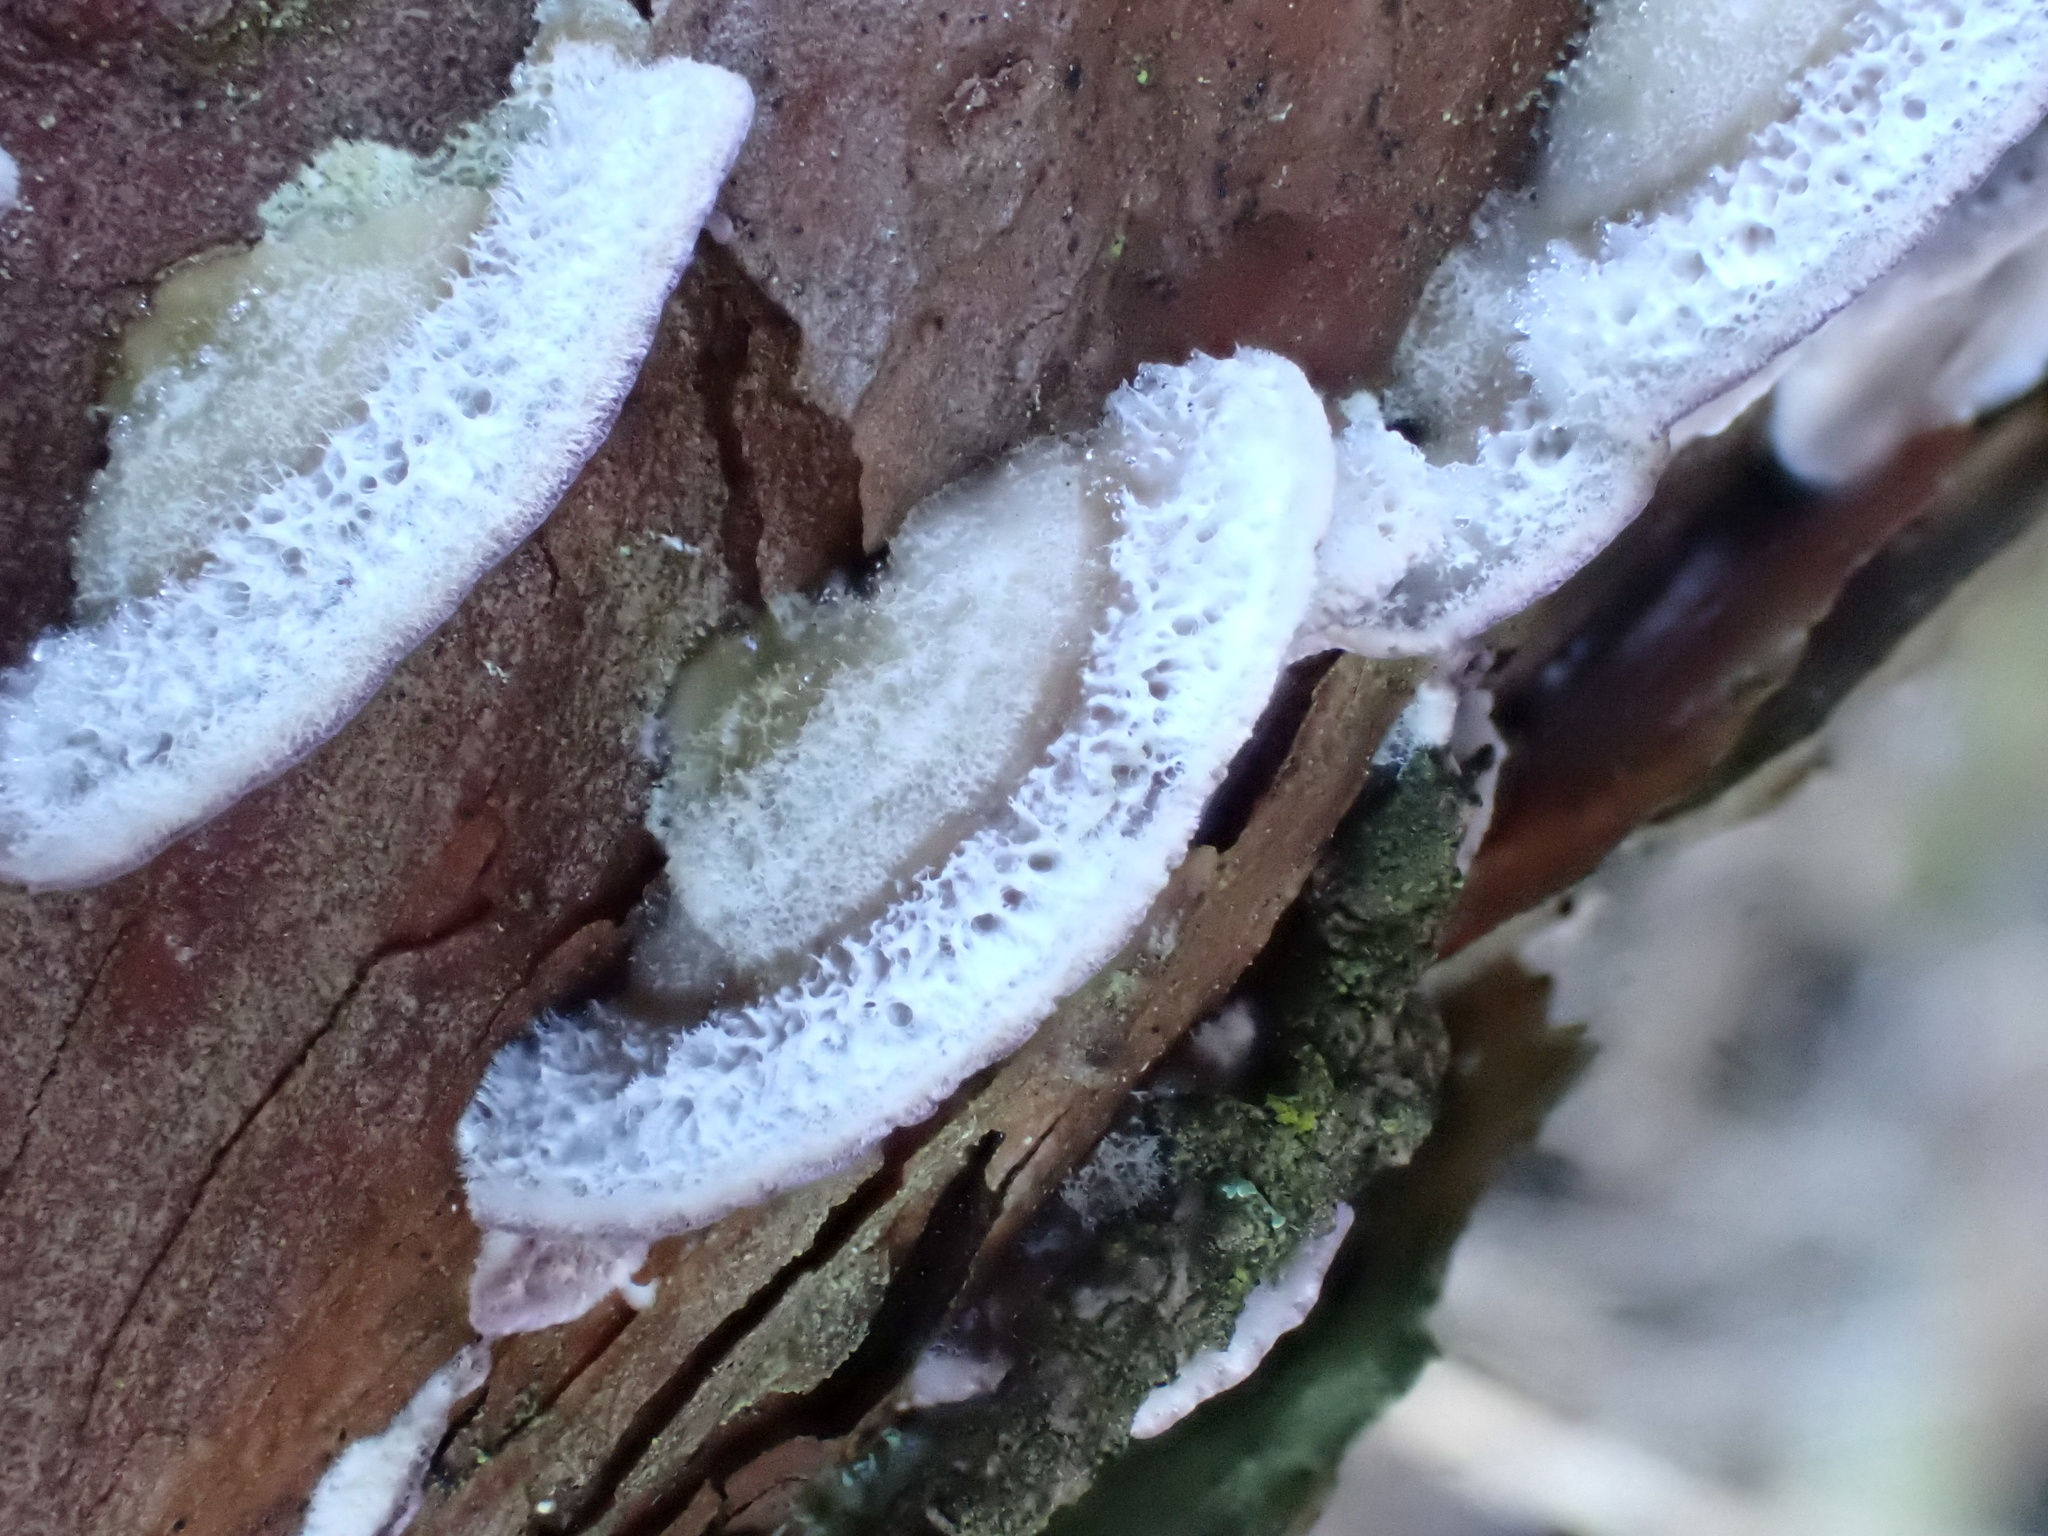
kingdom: Fungi
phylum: Basidiomycota
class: Agaricomycetes
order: Hymenochaetales
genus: Trichaptum
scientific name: Trichaptum abietinum
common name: Purplepore bracket
